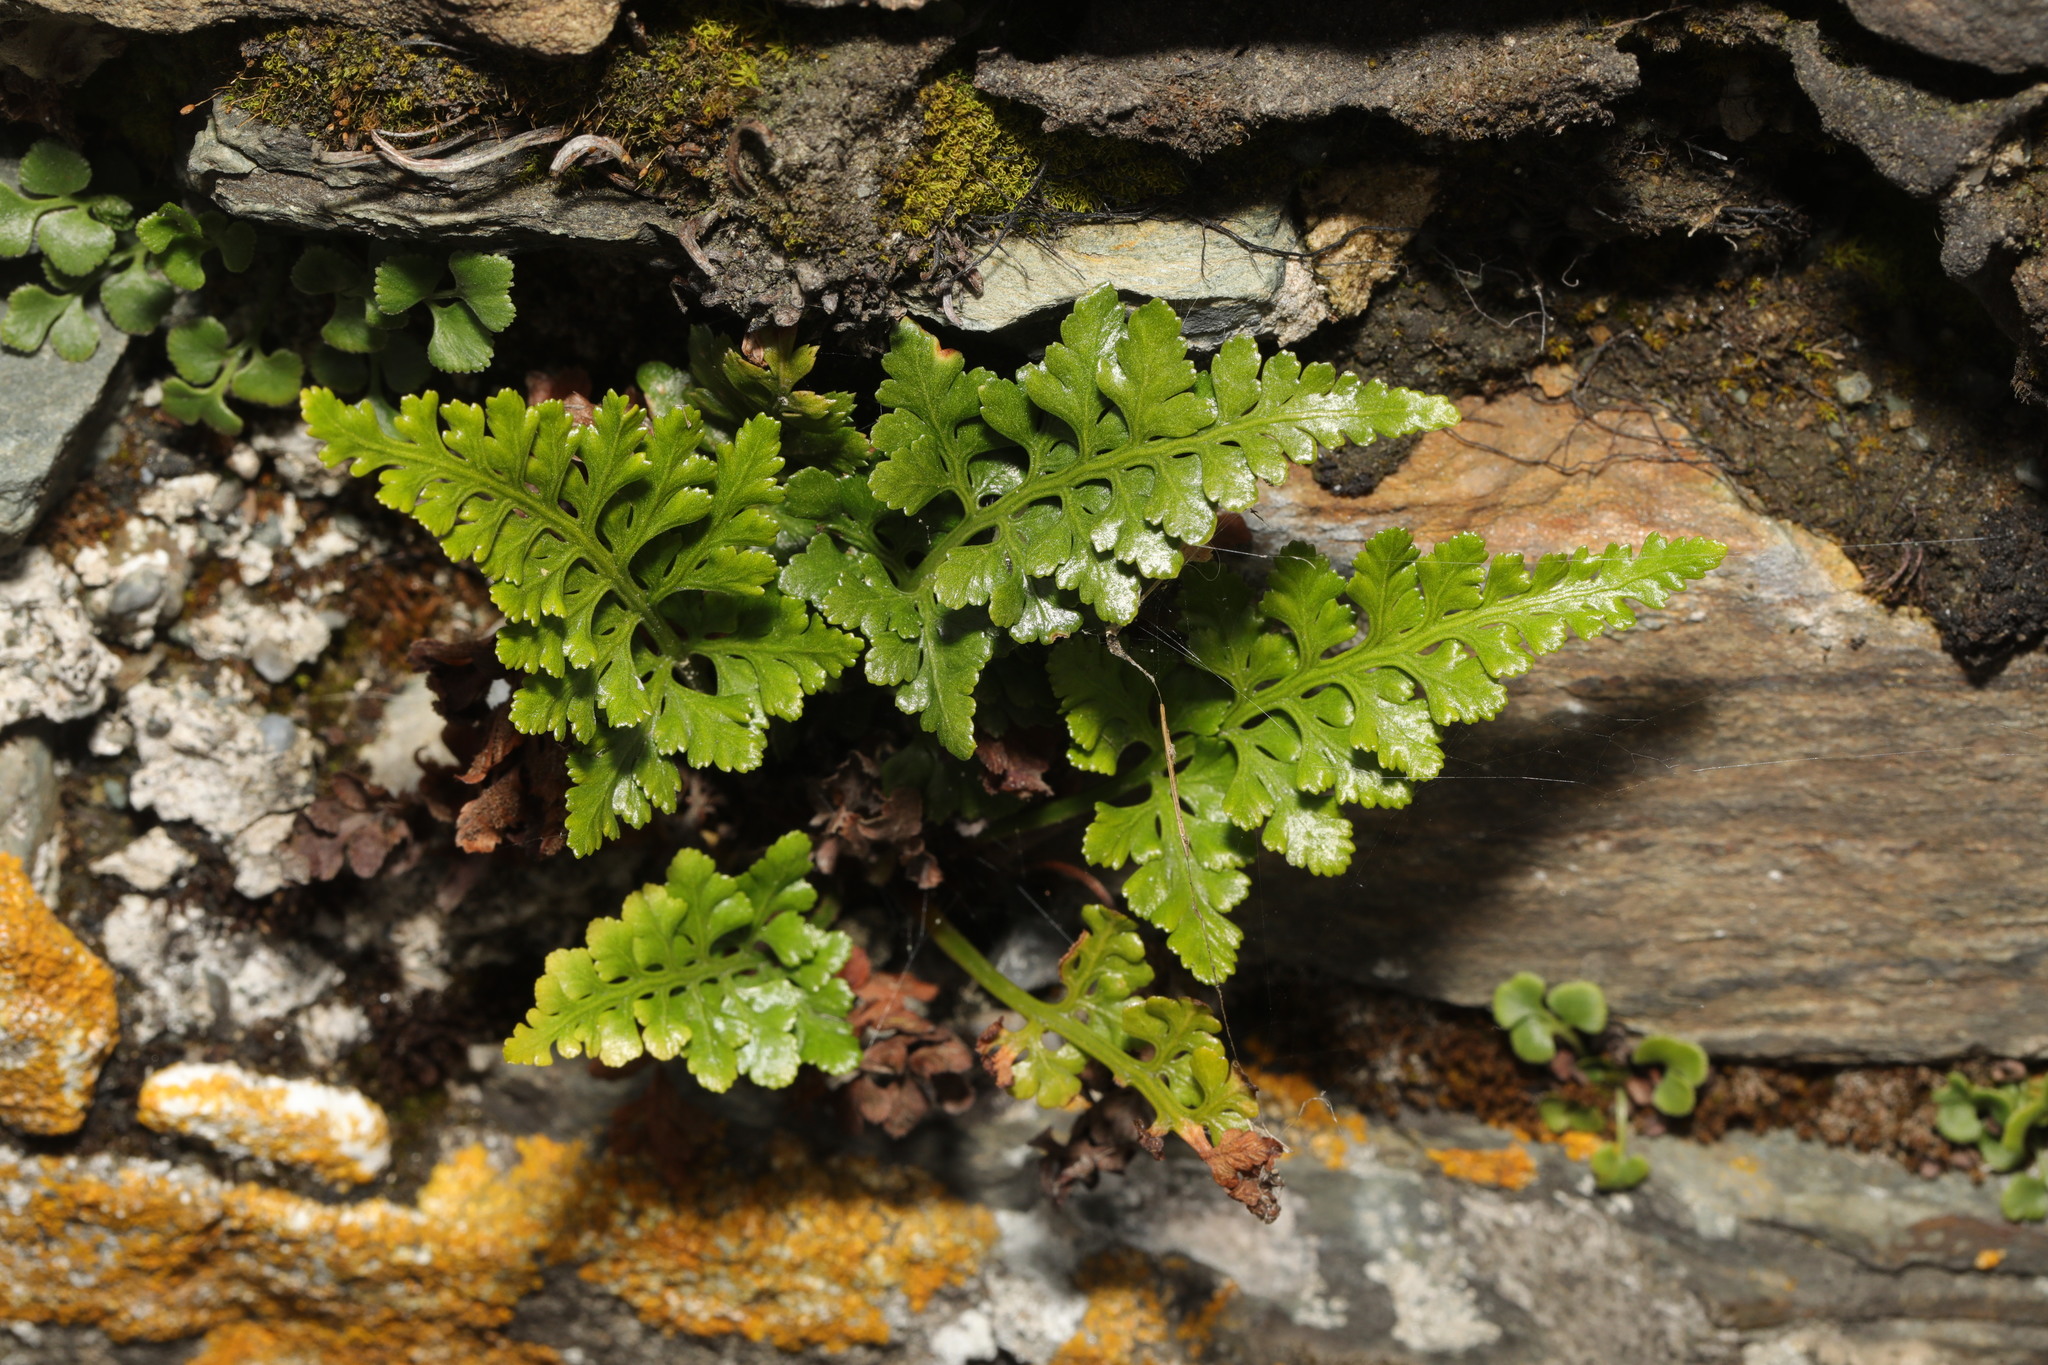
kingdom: Plantae
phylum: Tracheophyta
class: Polypodiopsida
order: Polypodiales
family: Aspleniaceae
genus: Asplenium
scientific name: Asplenium adiantum-nigrum
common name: Black spleenwort
